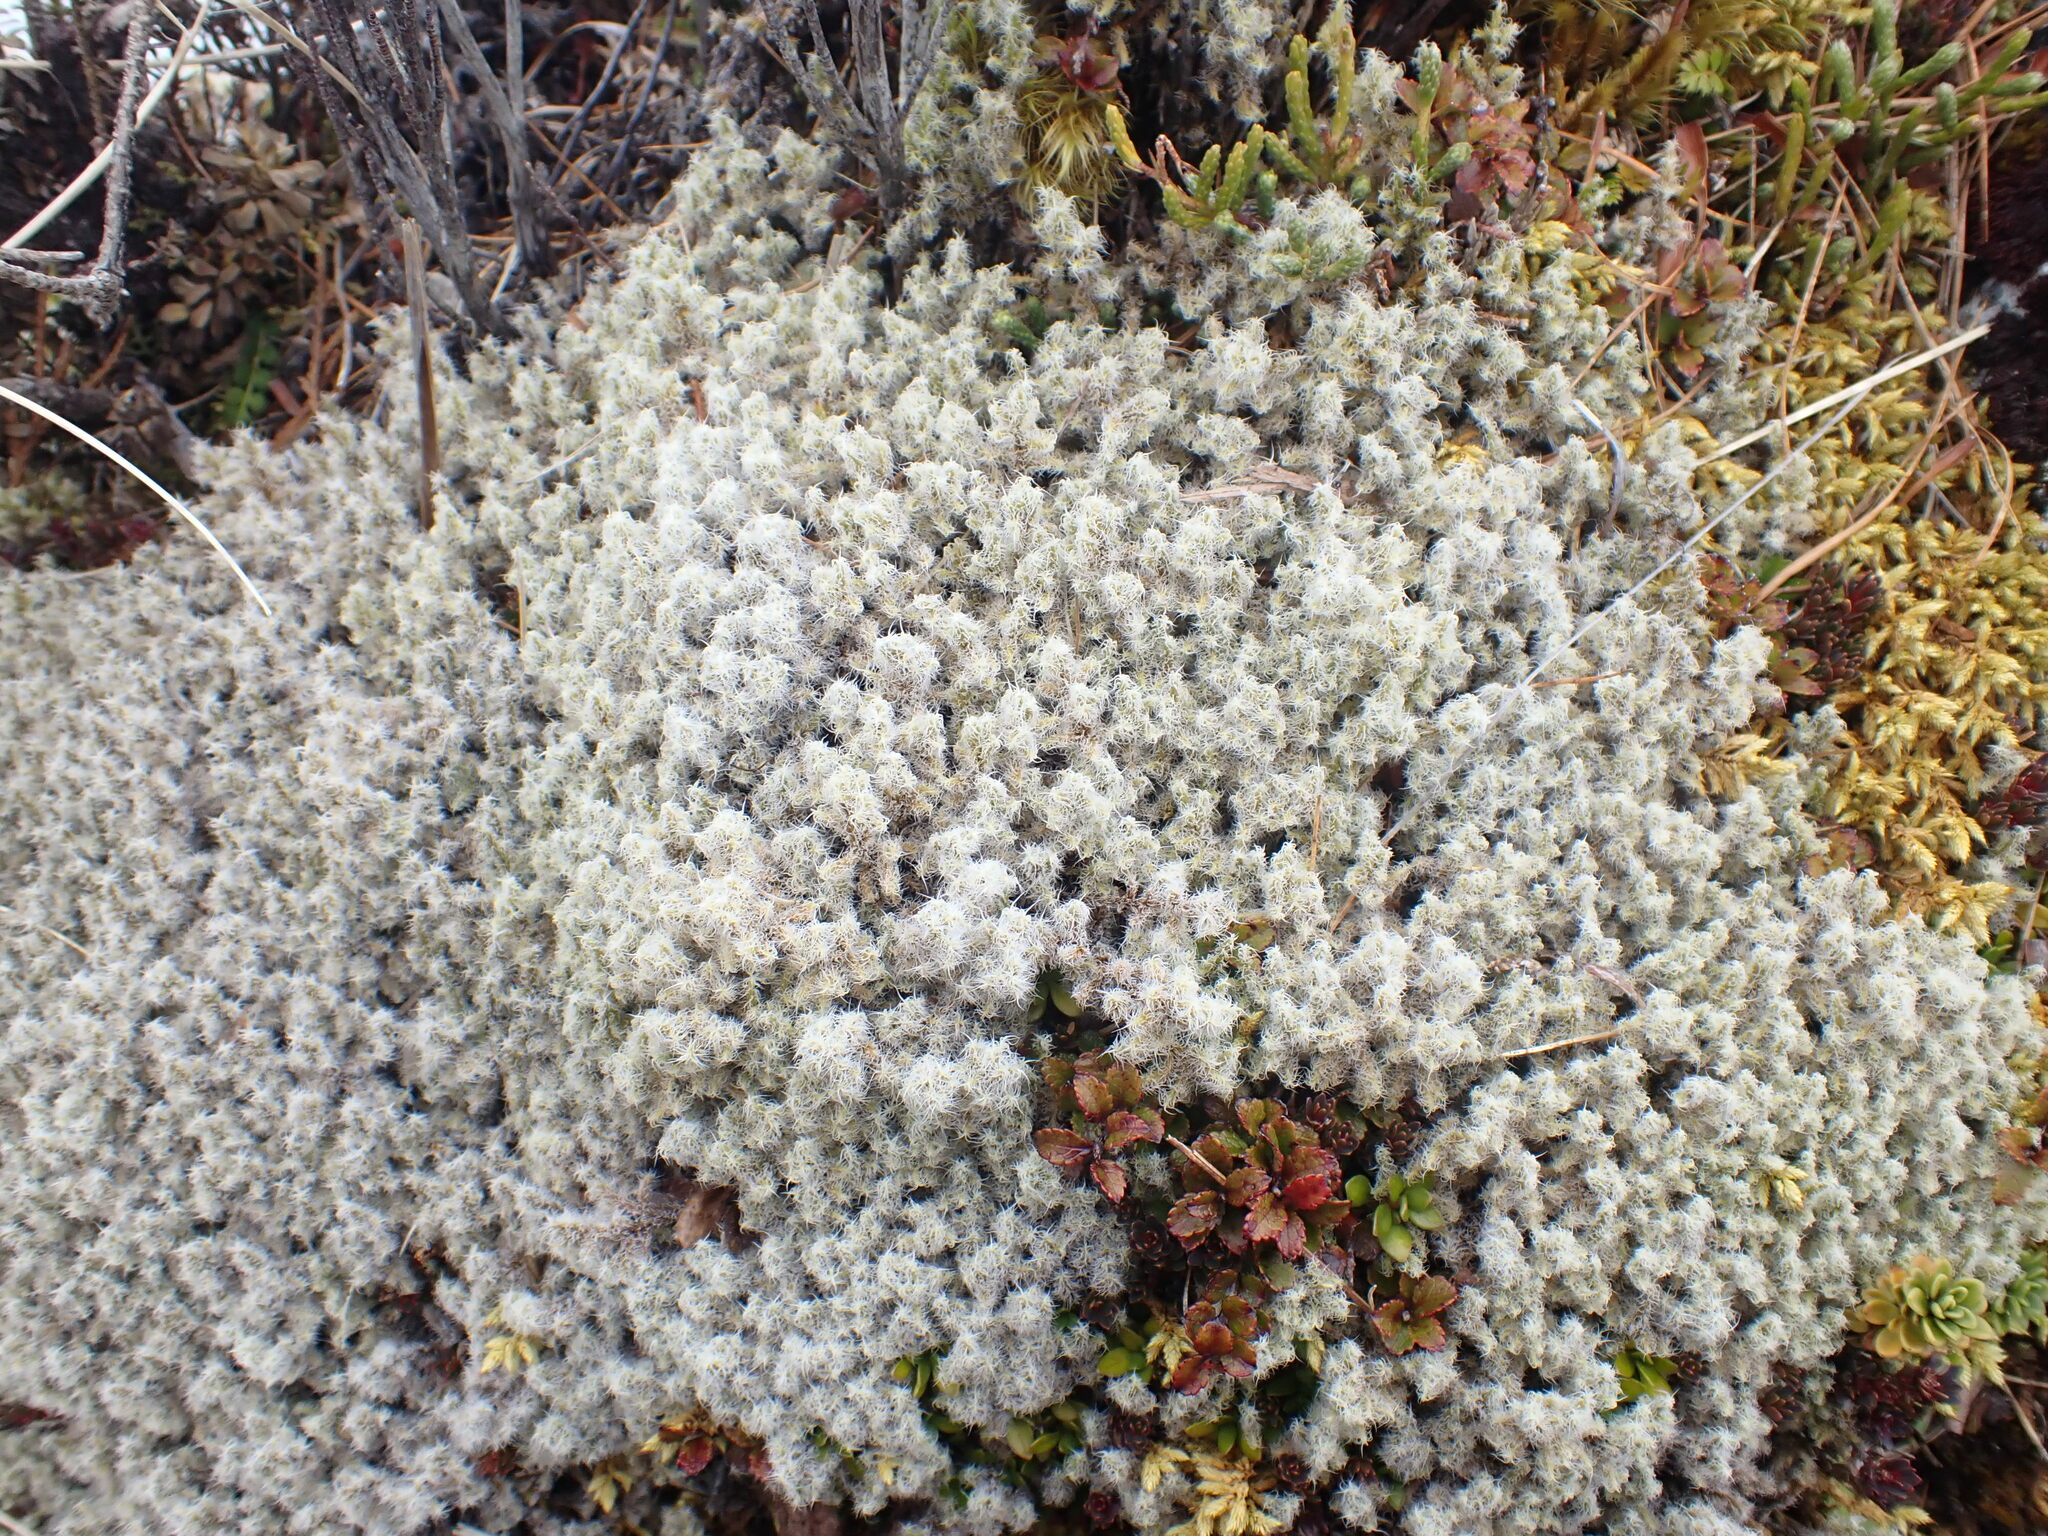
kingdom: Plantae
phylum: Bryophyta
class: Bryopsida
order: Grimmiales
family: Grimmiaceae
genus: Racomitrium
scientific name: Racomitrium lanuginosum
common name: Hoary rock moss
